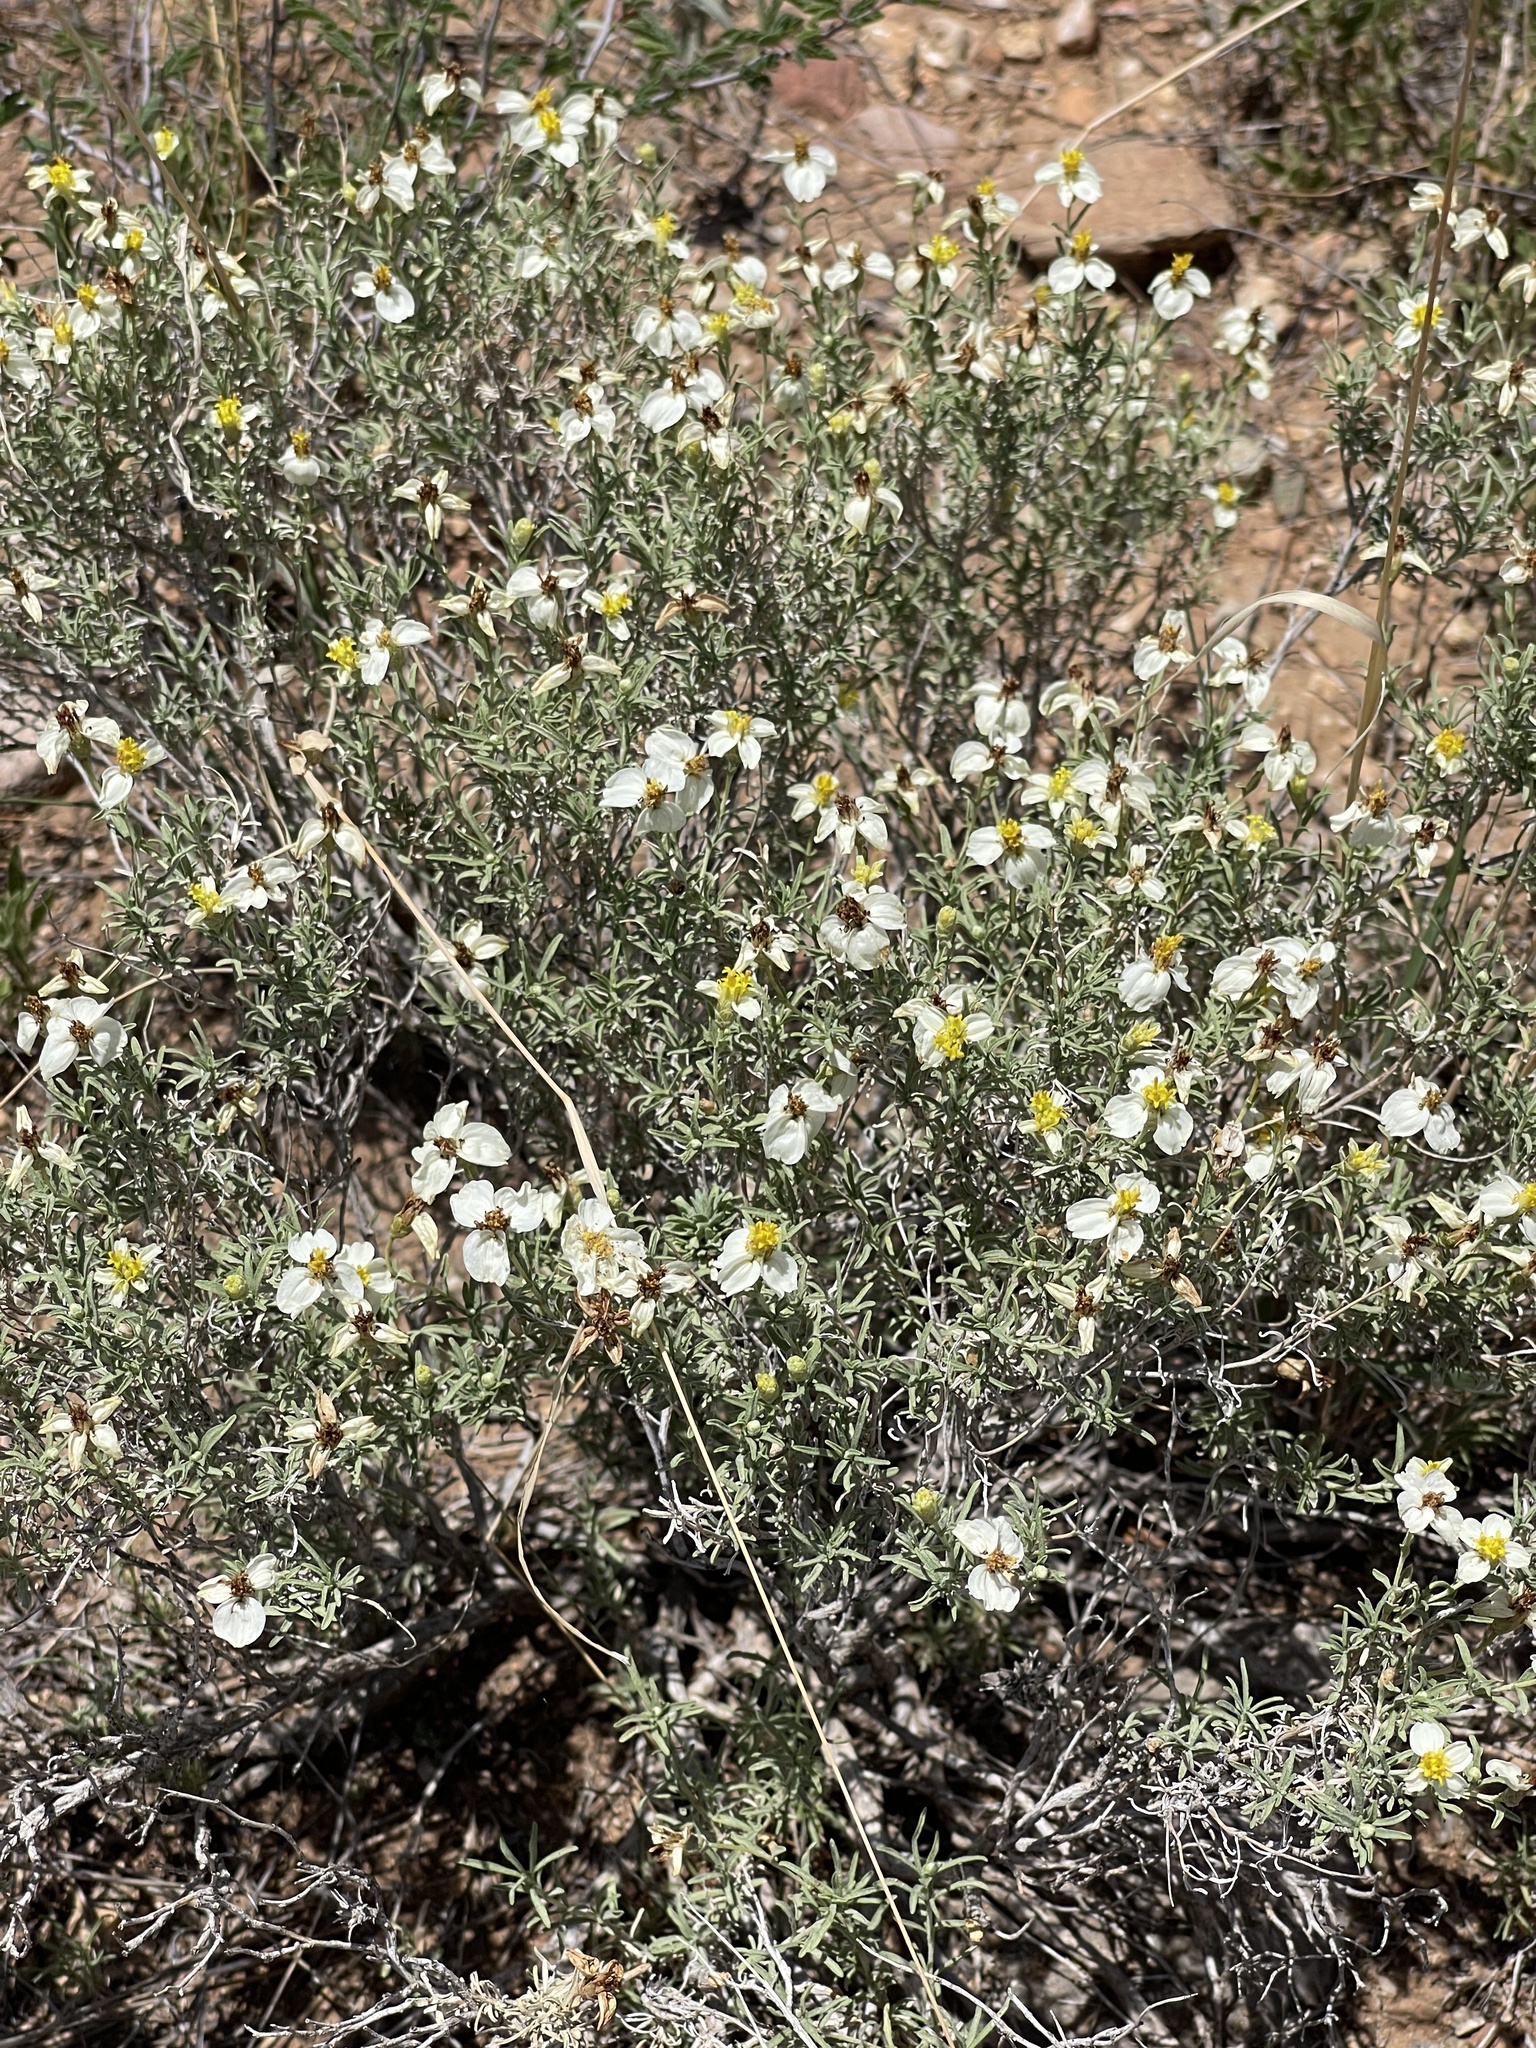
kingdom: Plantae
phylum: Tracheophyta
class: Magnoliopsida
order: Asterales
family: Asteraceae
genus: Zinnia
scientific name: Zinnia acerosa
